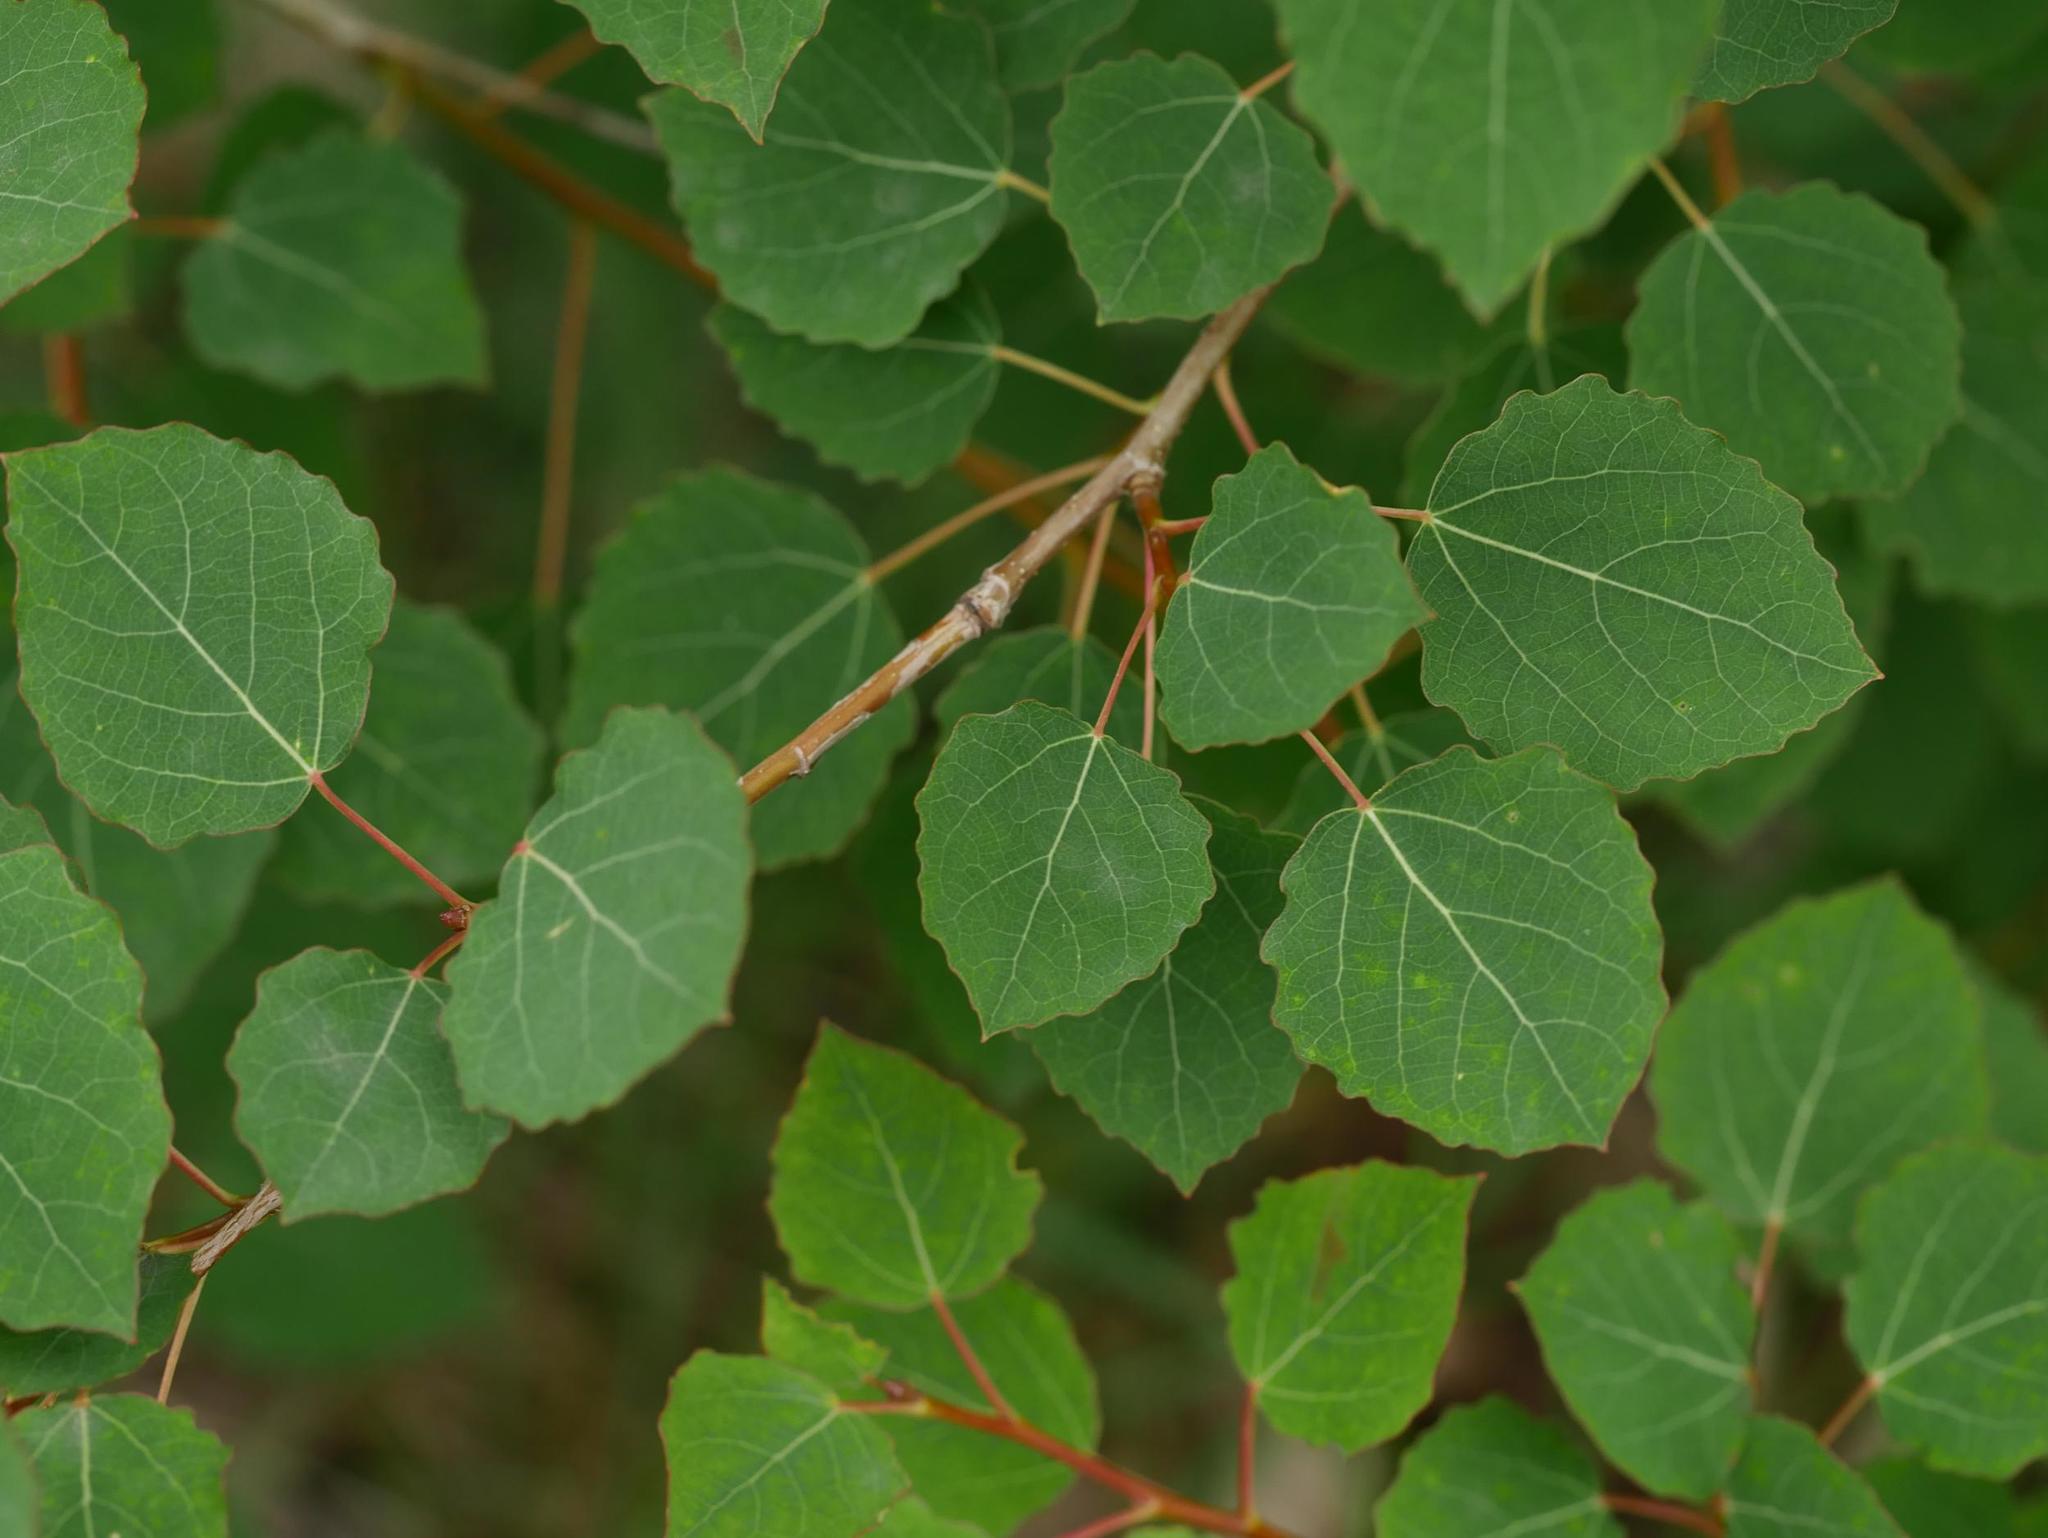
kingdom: Plantae
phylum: Tracheophyta
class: Magnoliopsida
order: Malpighiales
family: Salicaceae
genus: Populus
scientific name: Populus tremula
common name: European aspen
